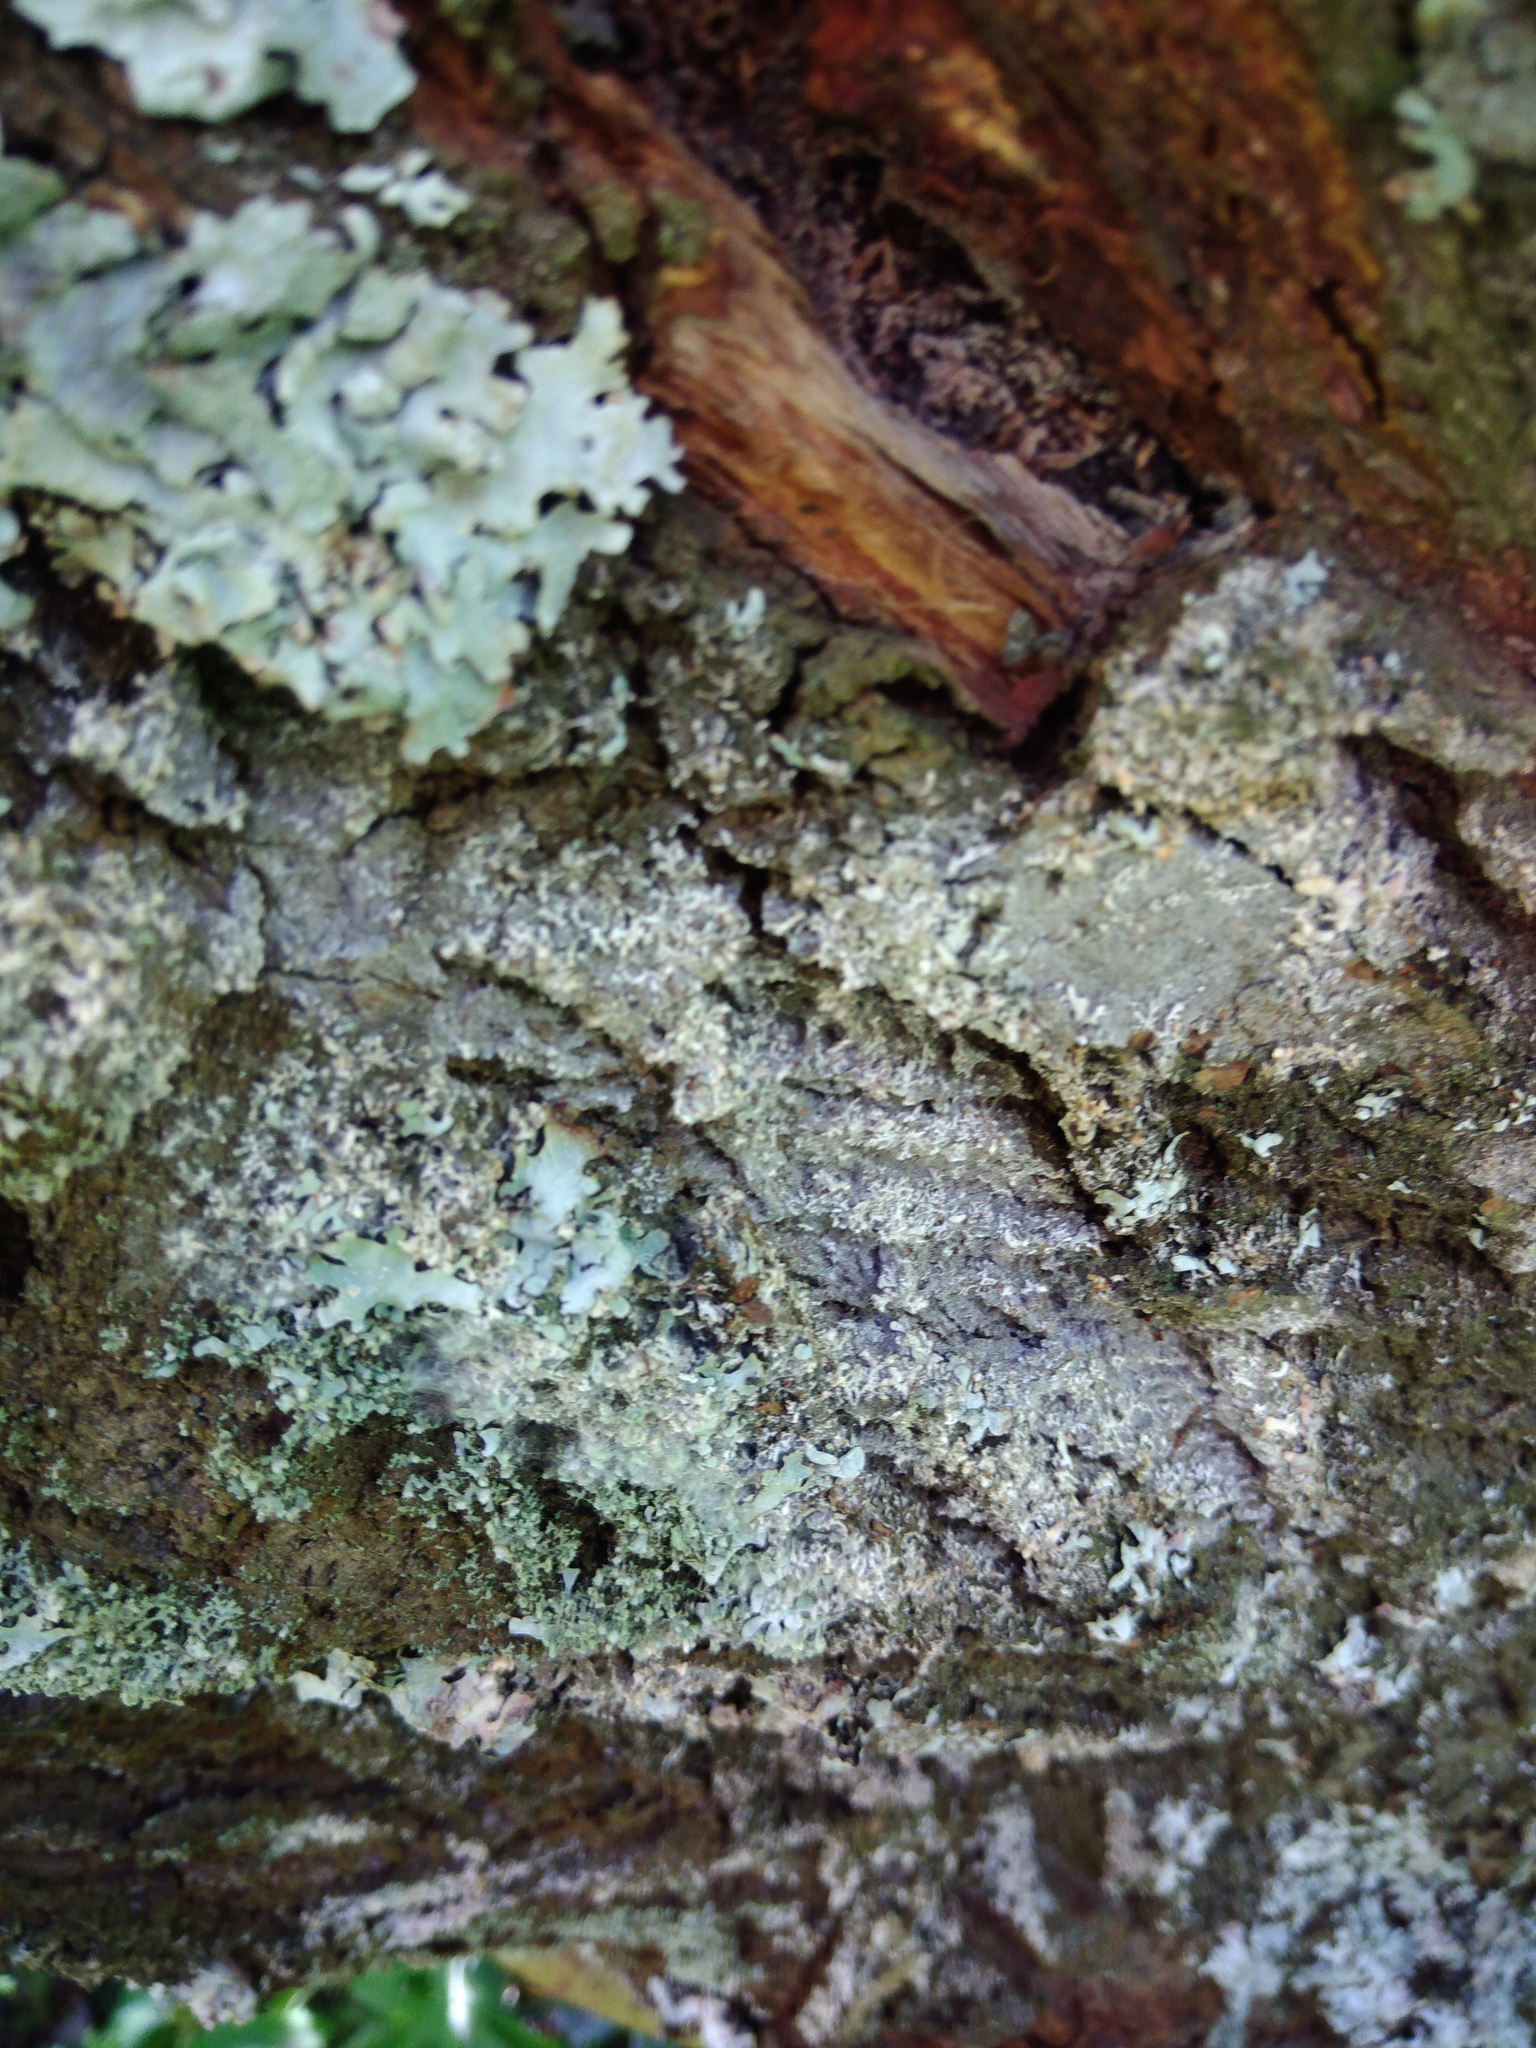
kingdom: Fungi
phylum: Basidiomycota
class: Agaricomycetes
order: Atheliales
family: Atheliaceae
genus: Athelia
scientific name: Athelia arachnoidea
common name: Candelabra duster
